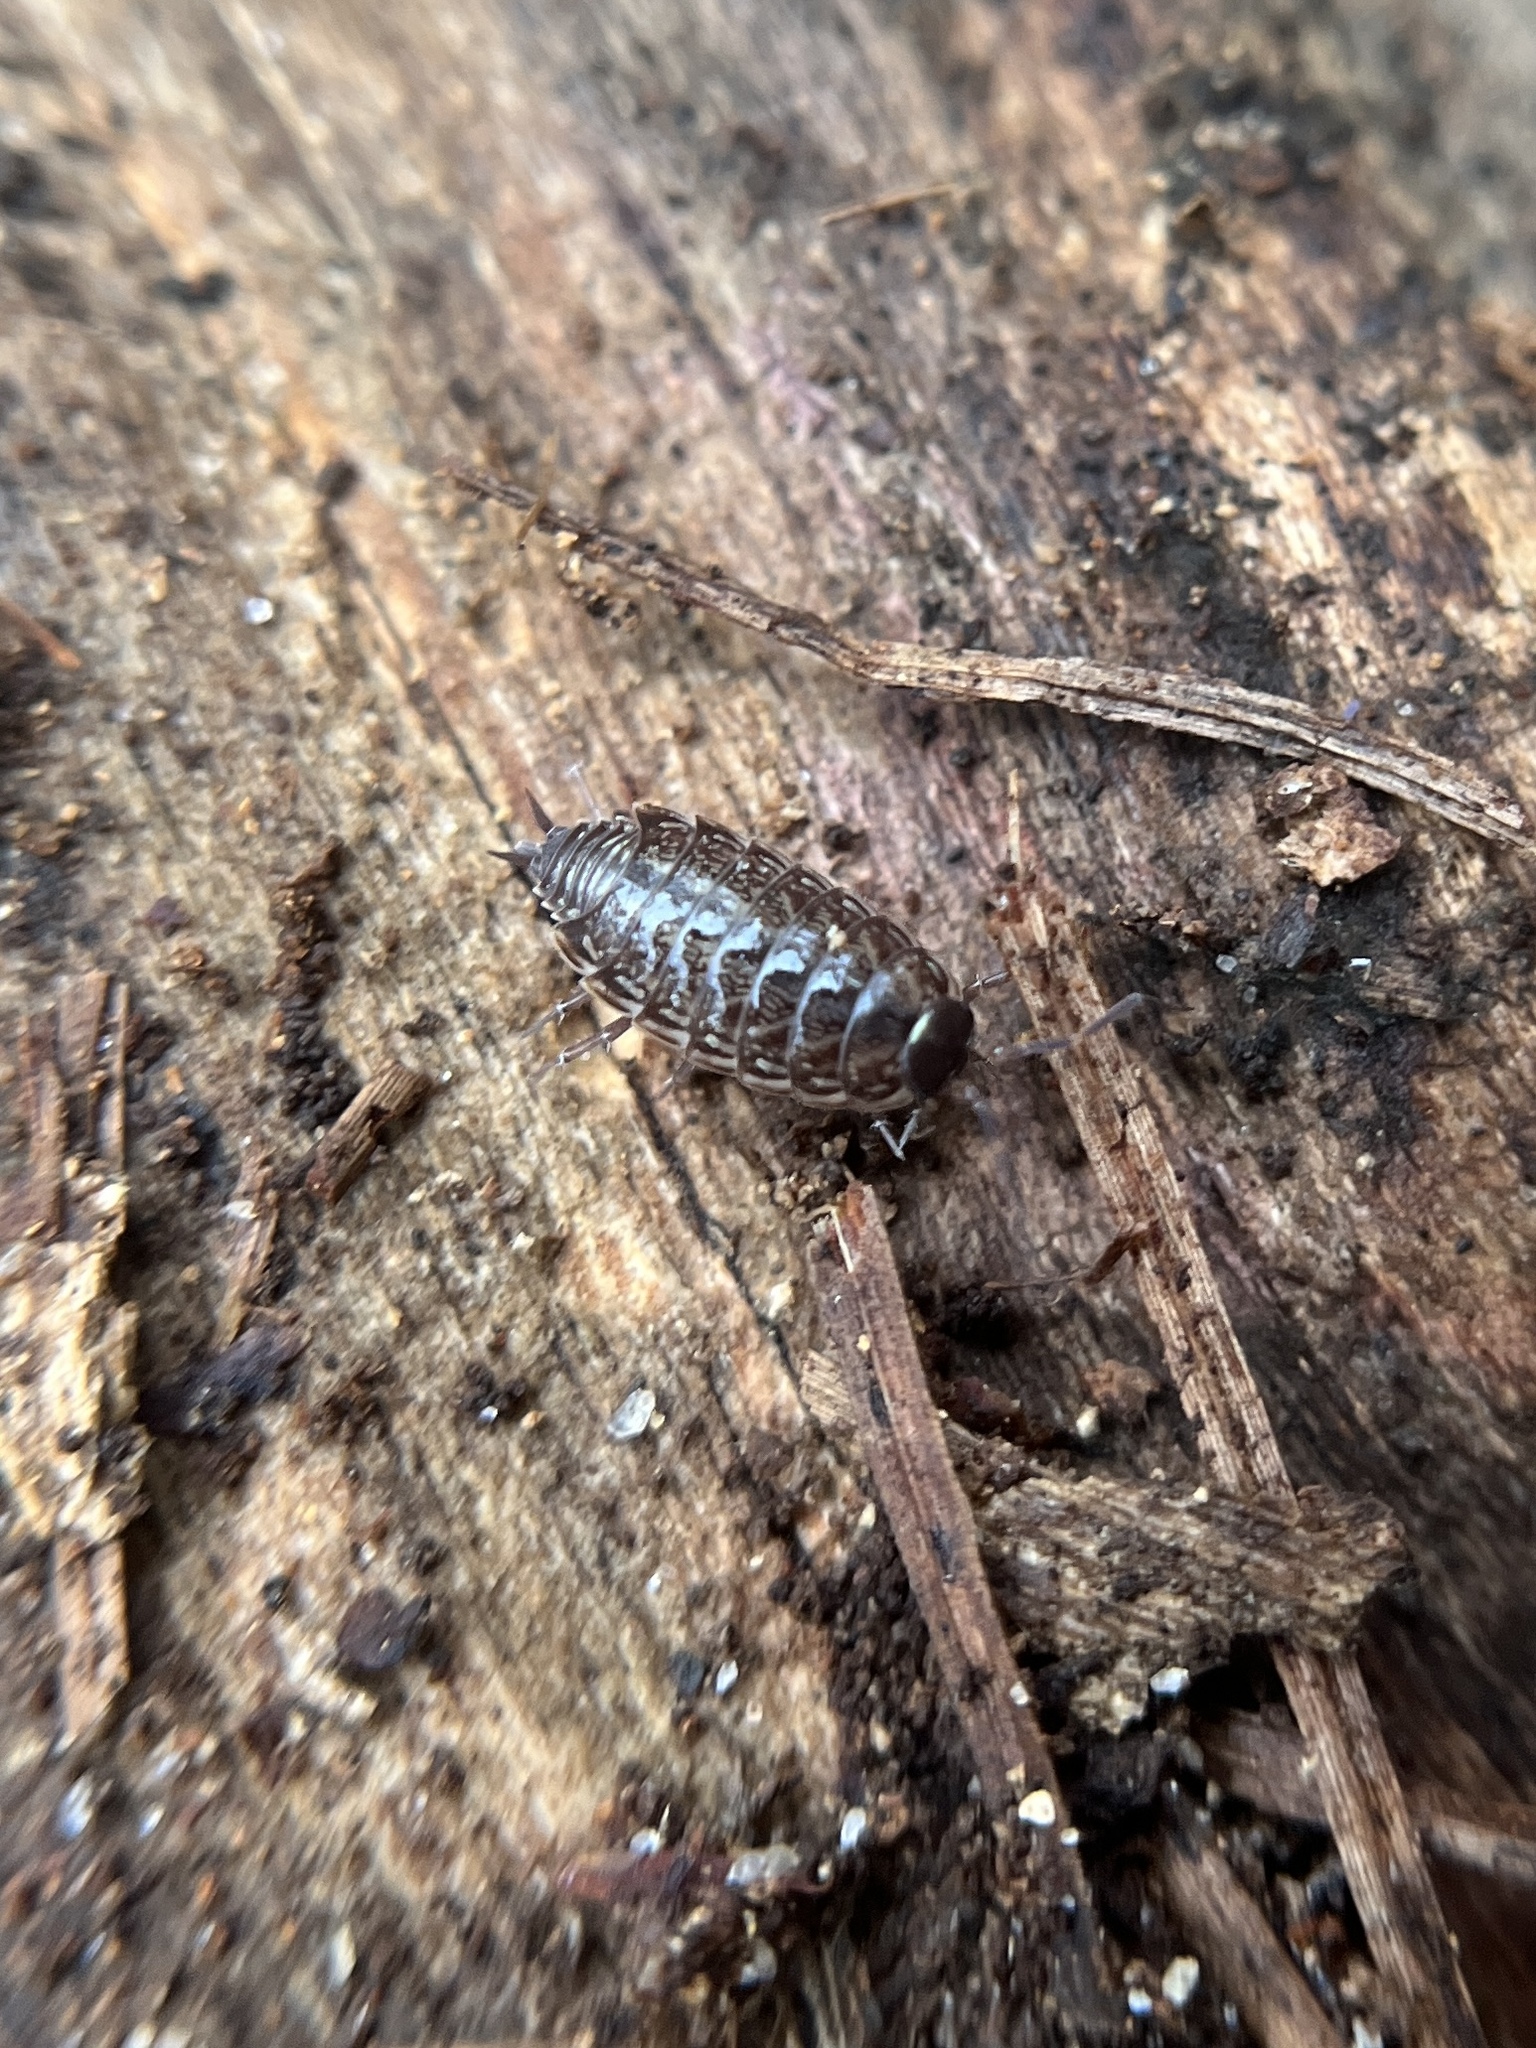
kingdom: Animalia
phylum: Arthropoda
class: Malacostraca
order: Isopoda
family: Philosciidae
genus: Philoscia
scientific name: Philoscia muscorum
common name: Common striped woodlouse
